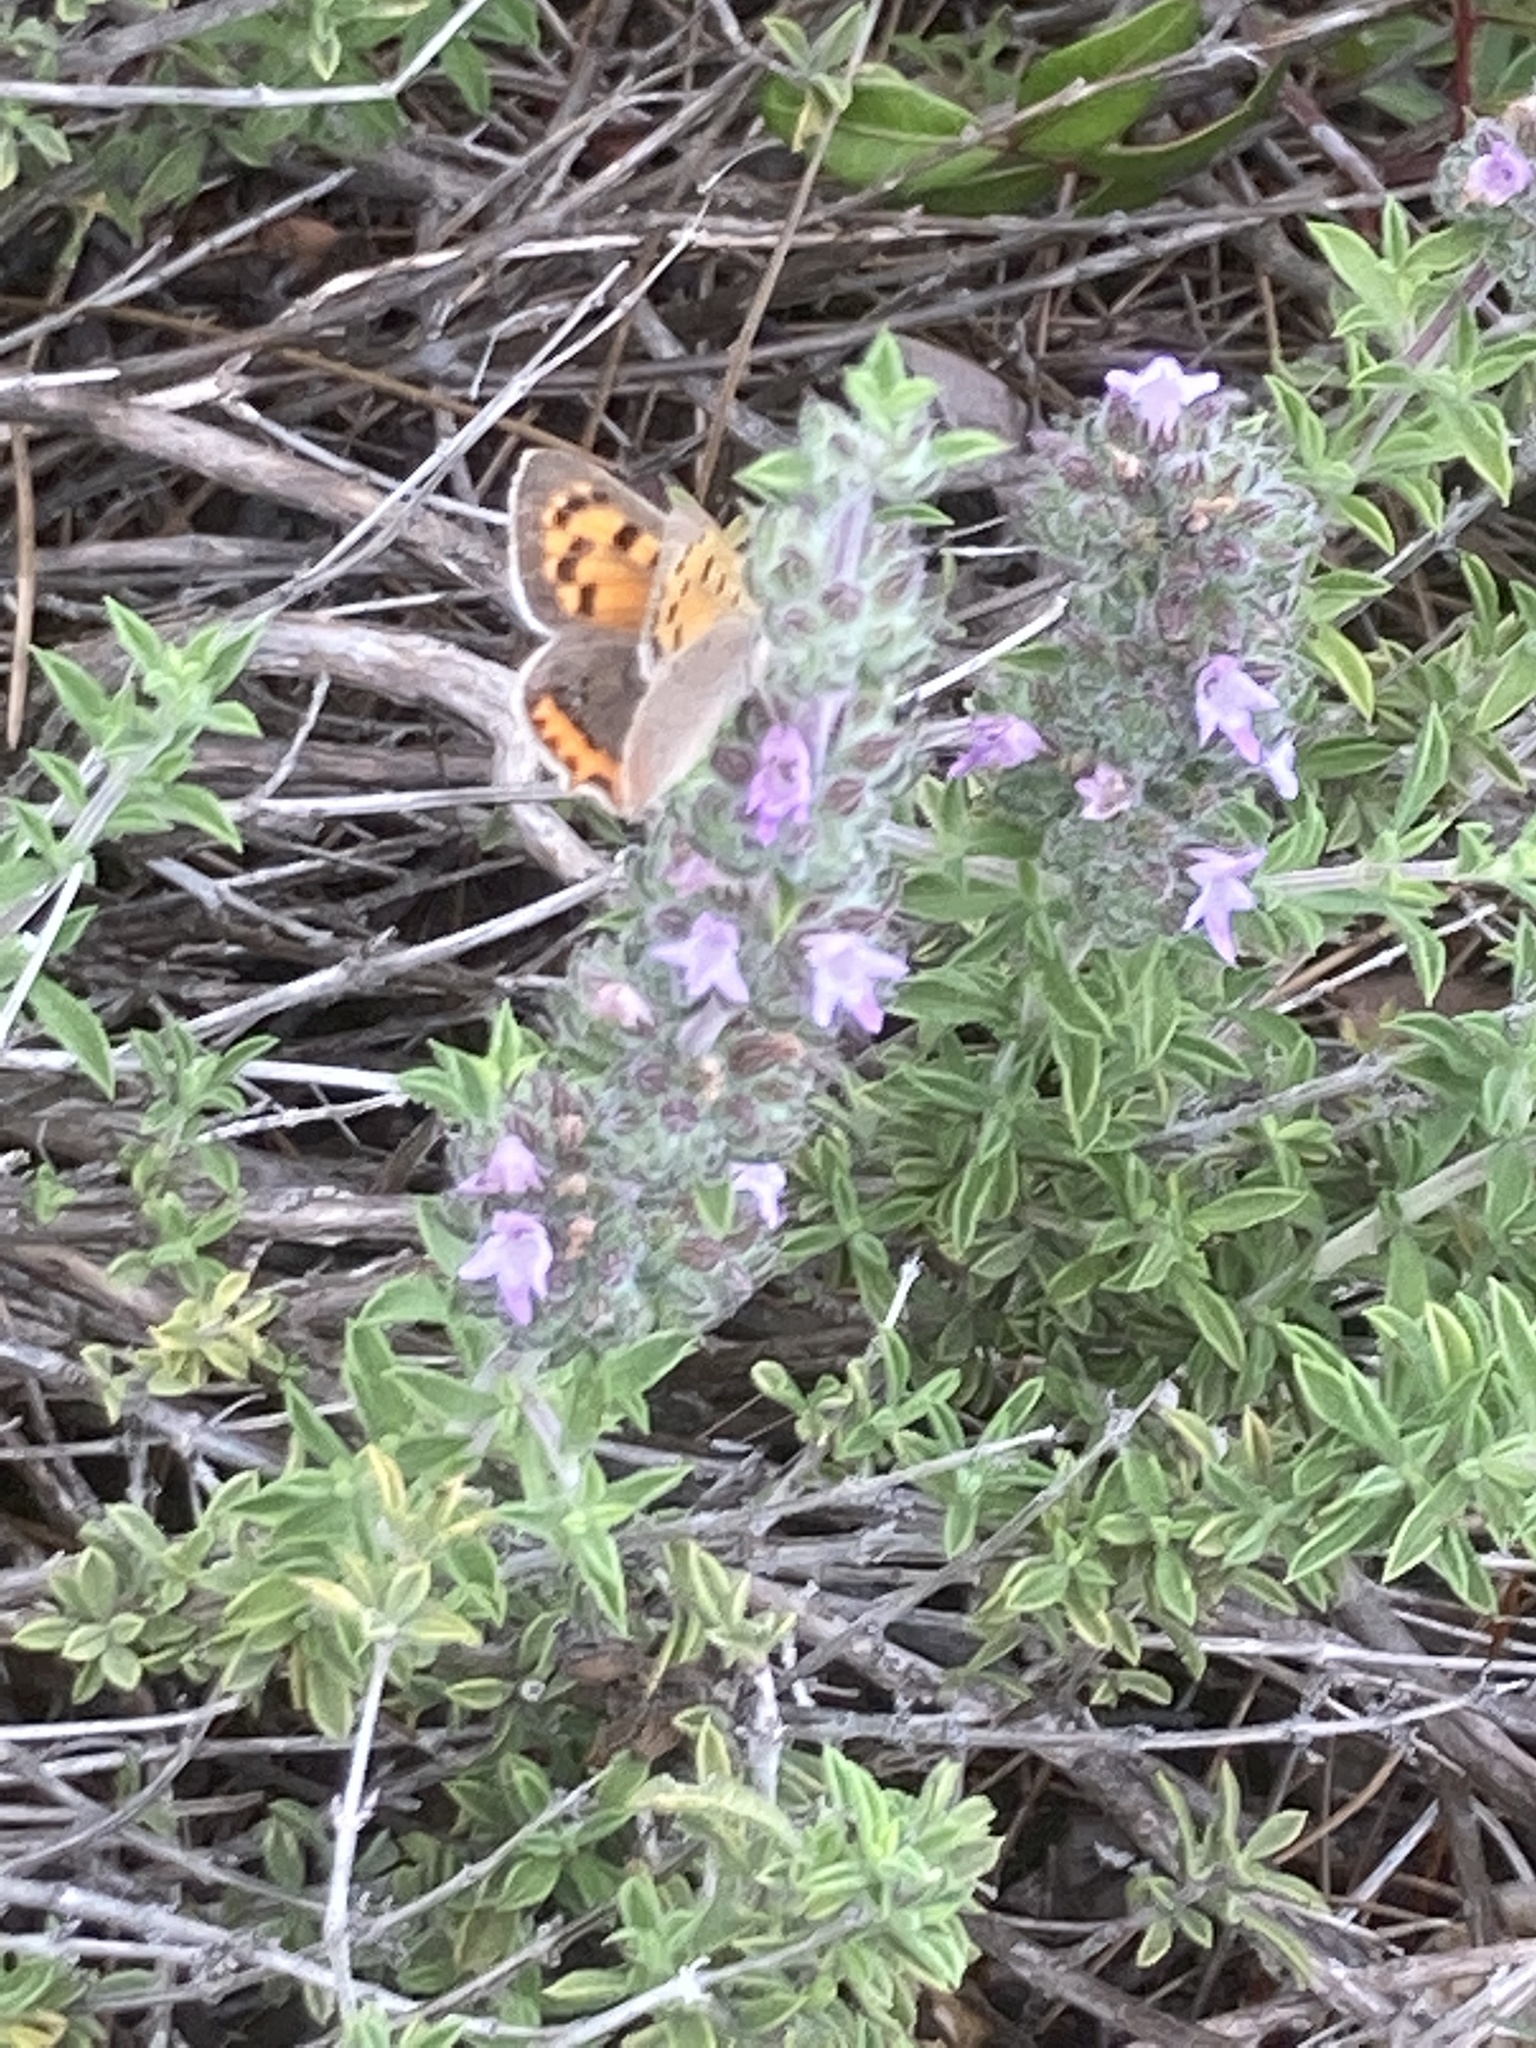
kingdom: Animalia
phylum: Arthropoda
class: Insecta
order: Lepidoptera
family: Lycaenidae
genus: Lycaena
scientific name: Lycaena phlaeas
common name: Small copper
